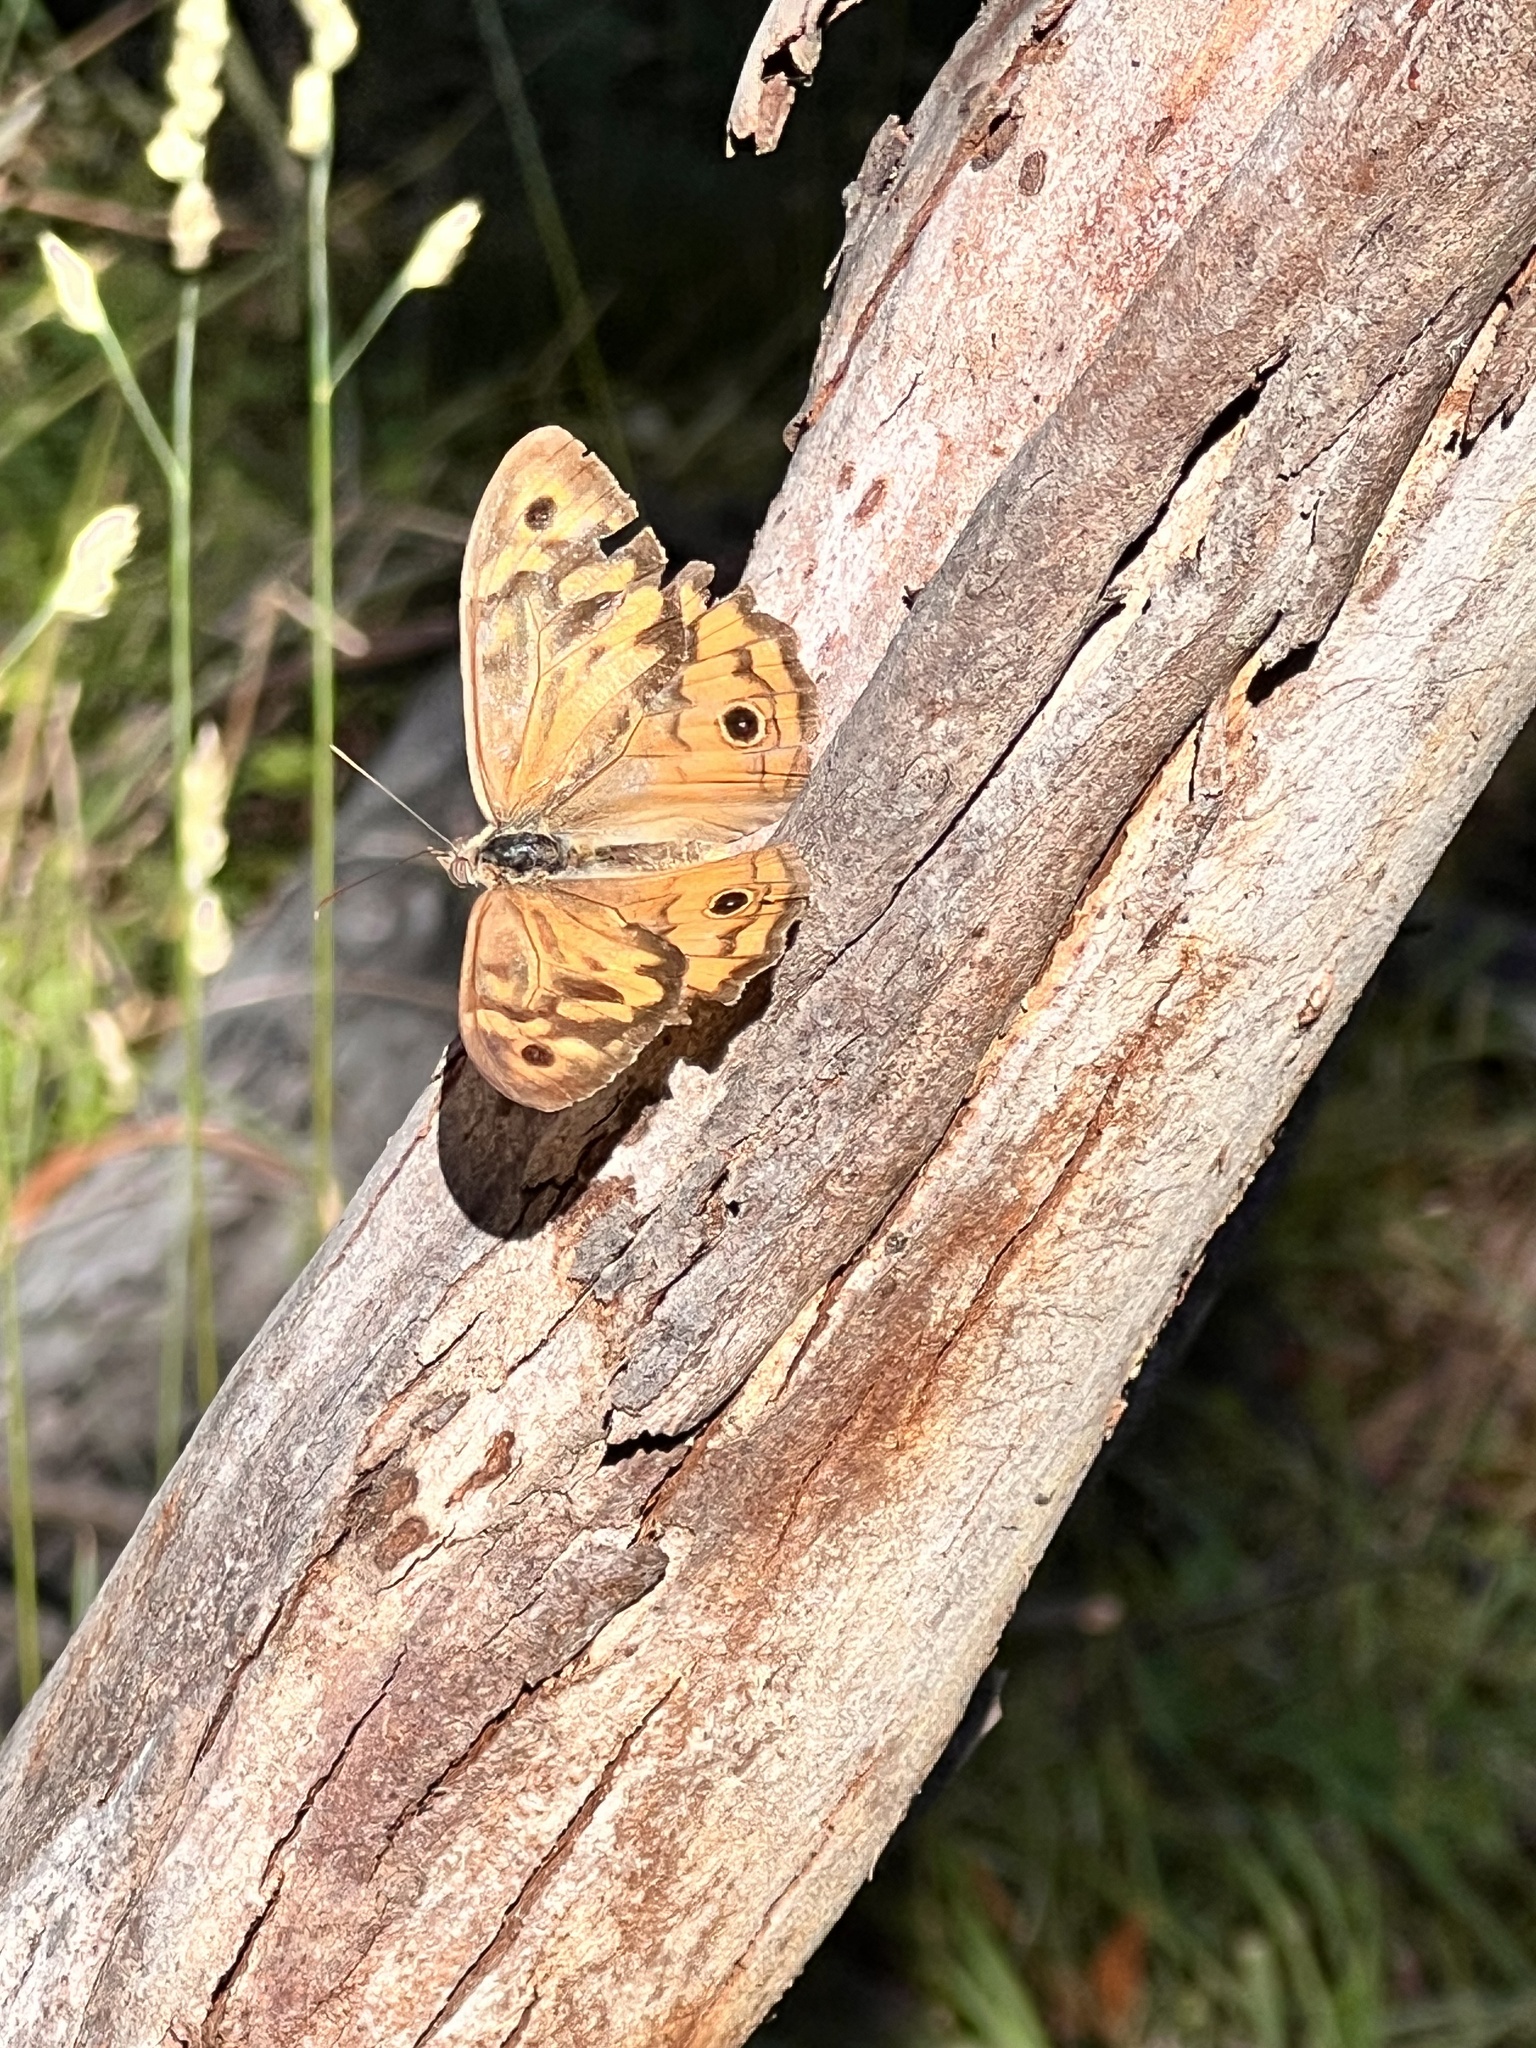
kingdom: Animalia
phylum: Arthropoda
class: Insecta
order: Lepidoptera
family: Nymphalidae
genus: Heteronympha
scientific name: Heteronympha merope
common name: Common brown
